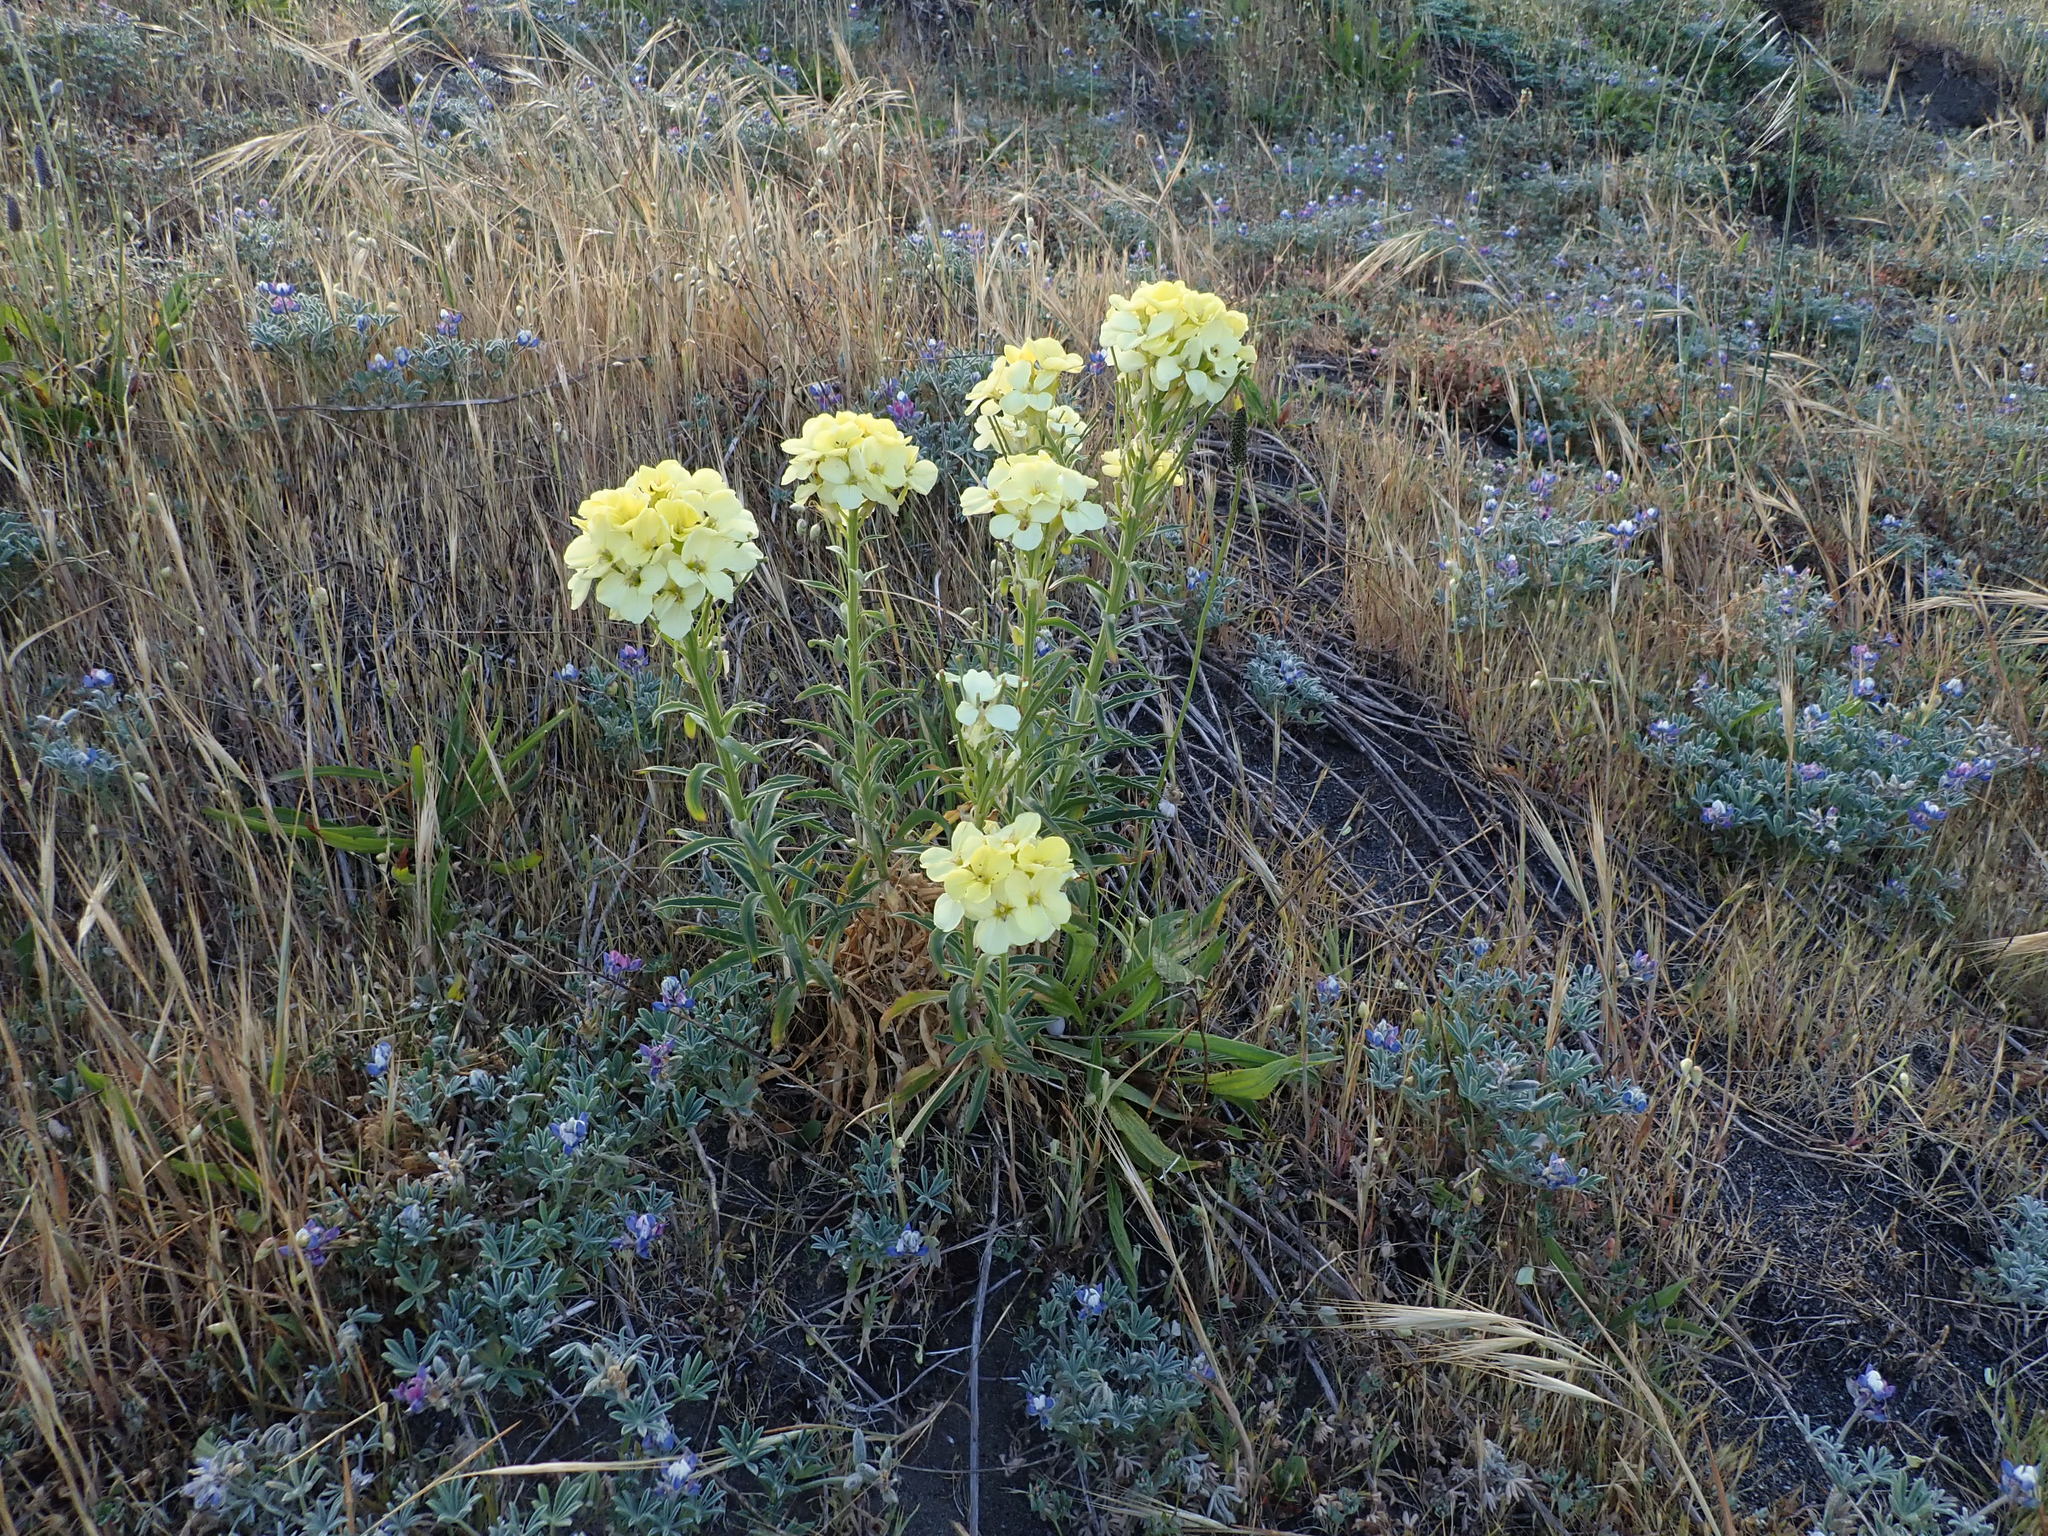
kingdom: Plantae
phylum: Tracheophyta
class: Magnoliopsida
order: Brassicales
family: Brassicaceae
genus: Erysimum
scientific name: Erysimum concinnum
